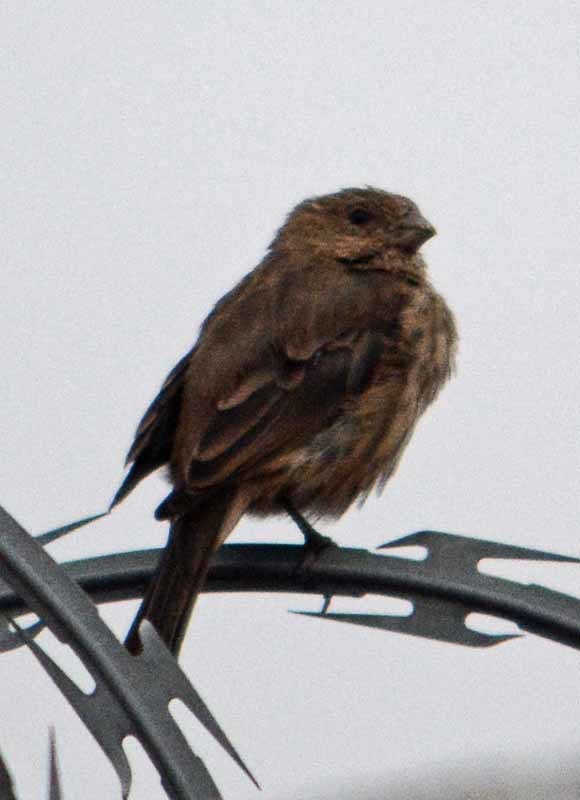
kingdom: Animalia
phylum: Chordata
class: Aves
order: Passeriformes
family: Fringillidae
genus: Haemorhous
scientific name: Haemorhous mexicanus
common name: House finch
